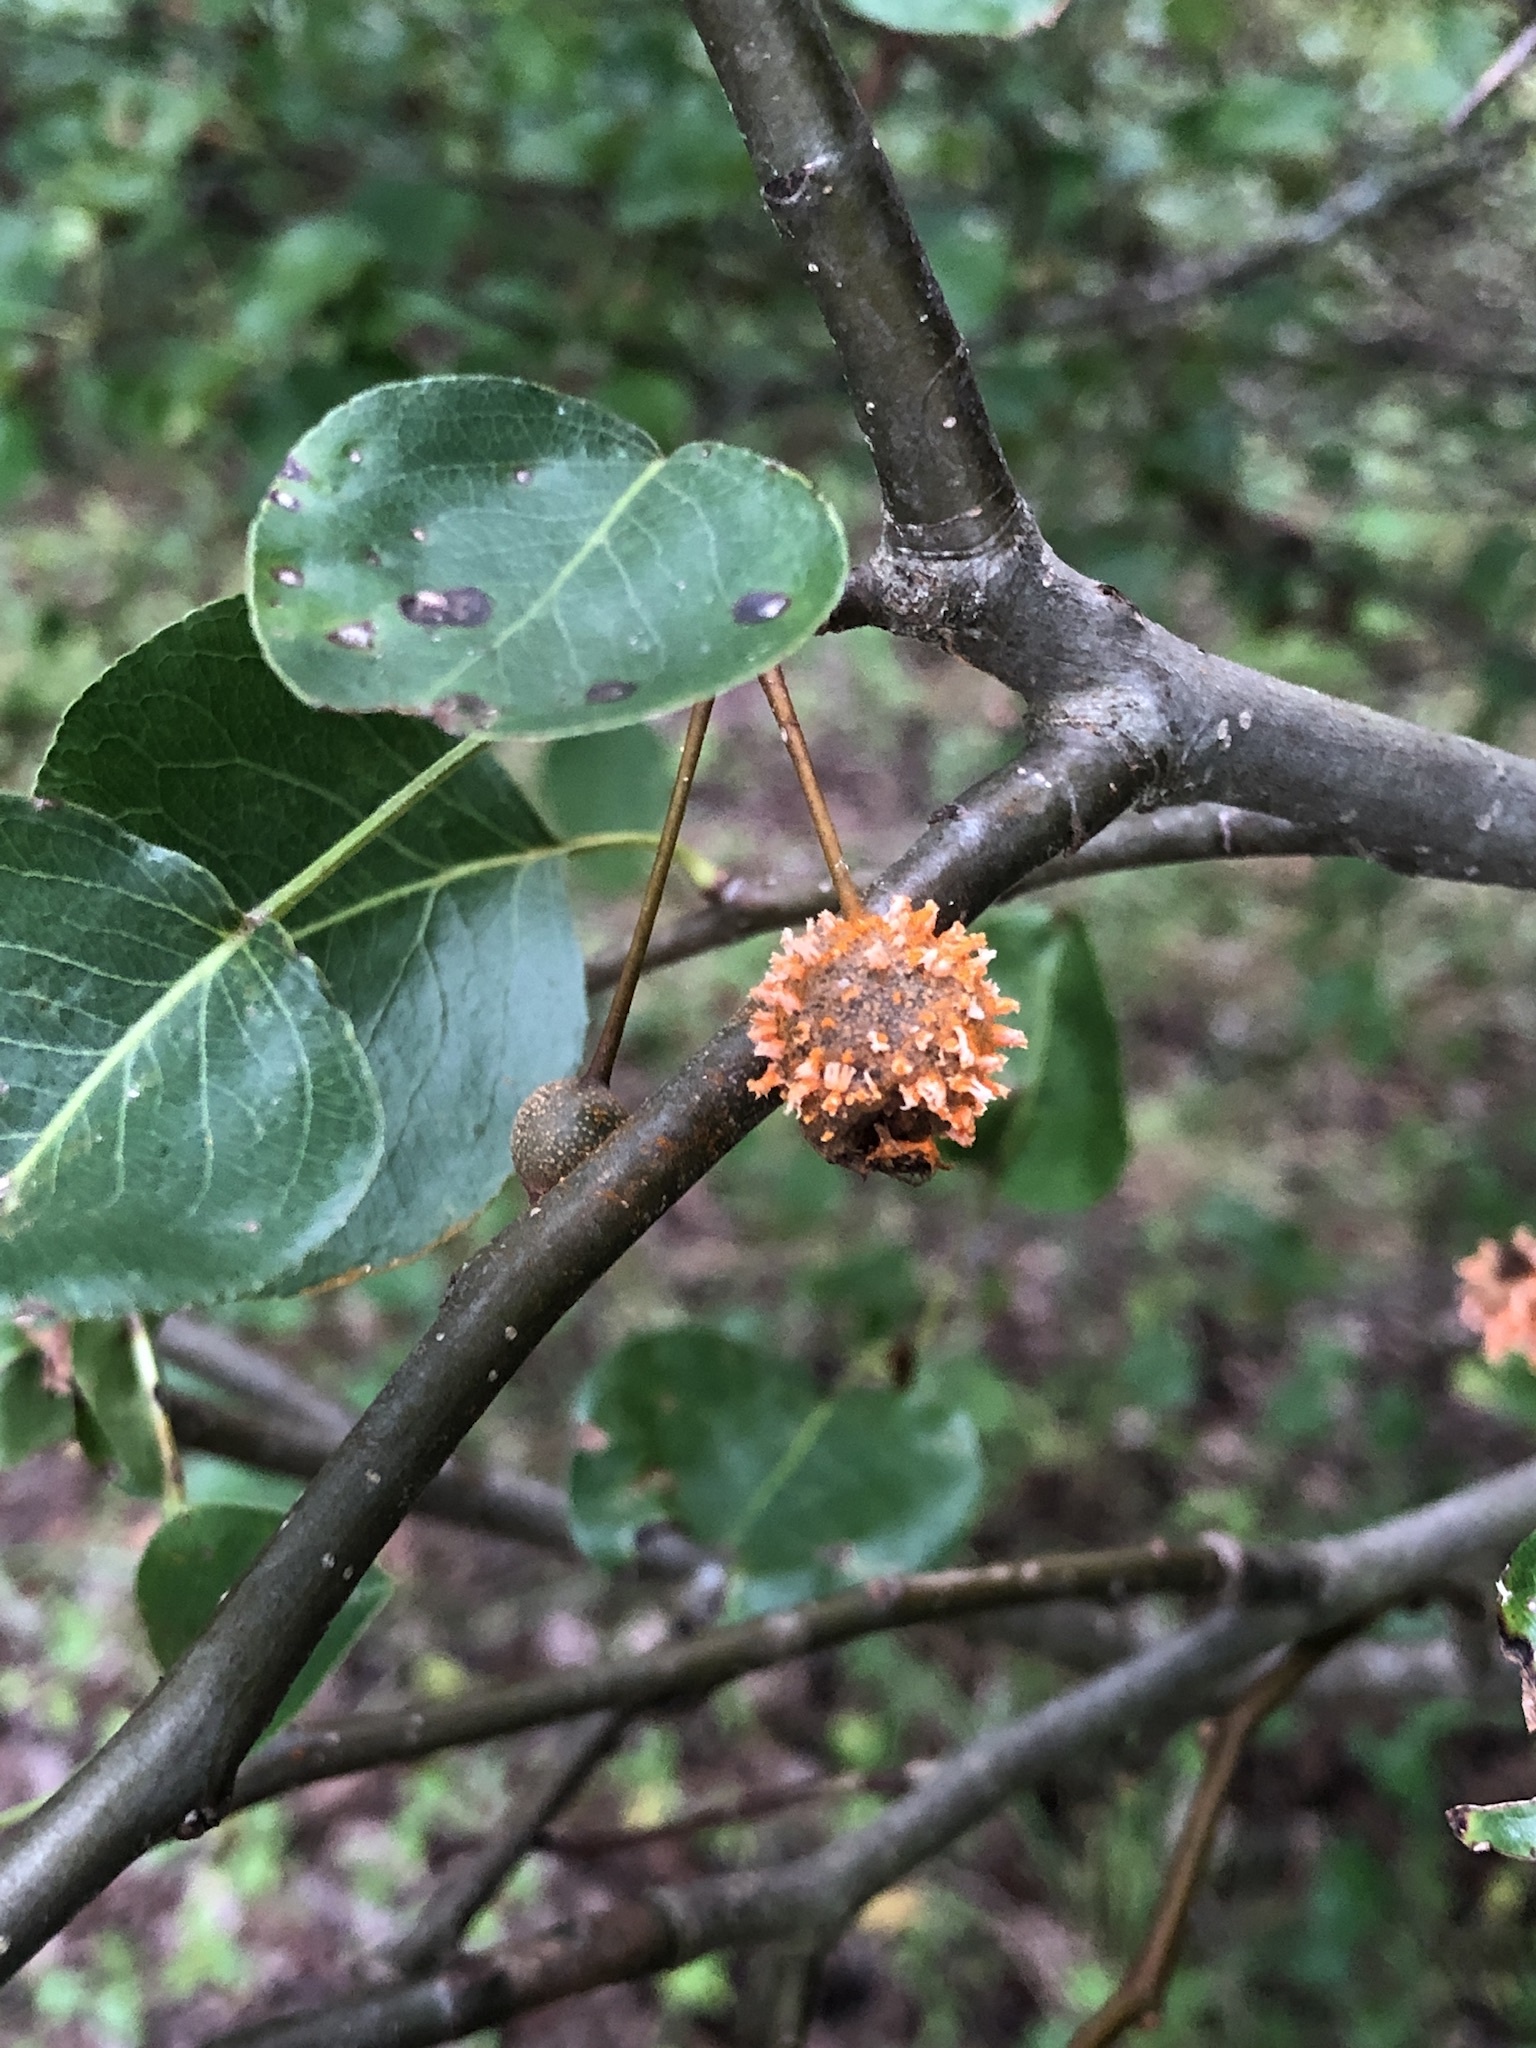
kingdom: Fungi
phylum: Basidiomycota
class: Pucciniomycetes
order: Pucciniales
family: Gymnosporangiaceae
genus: Gymnosporangium
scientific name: Gymnosporangium clavipes
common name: Quince rust
